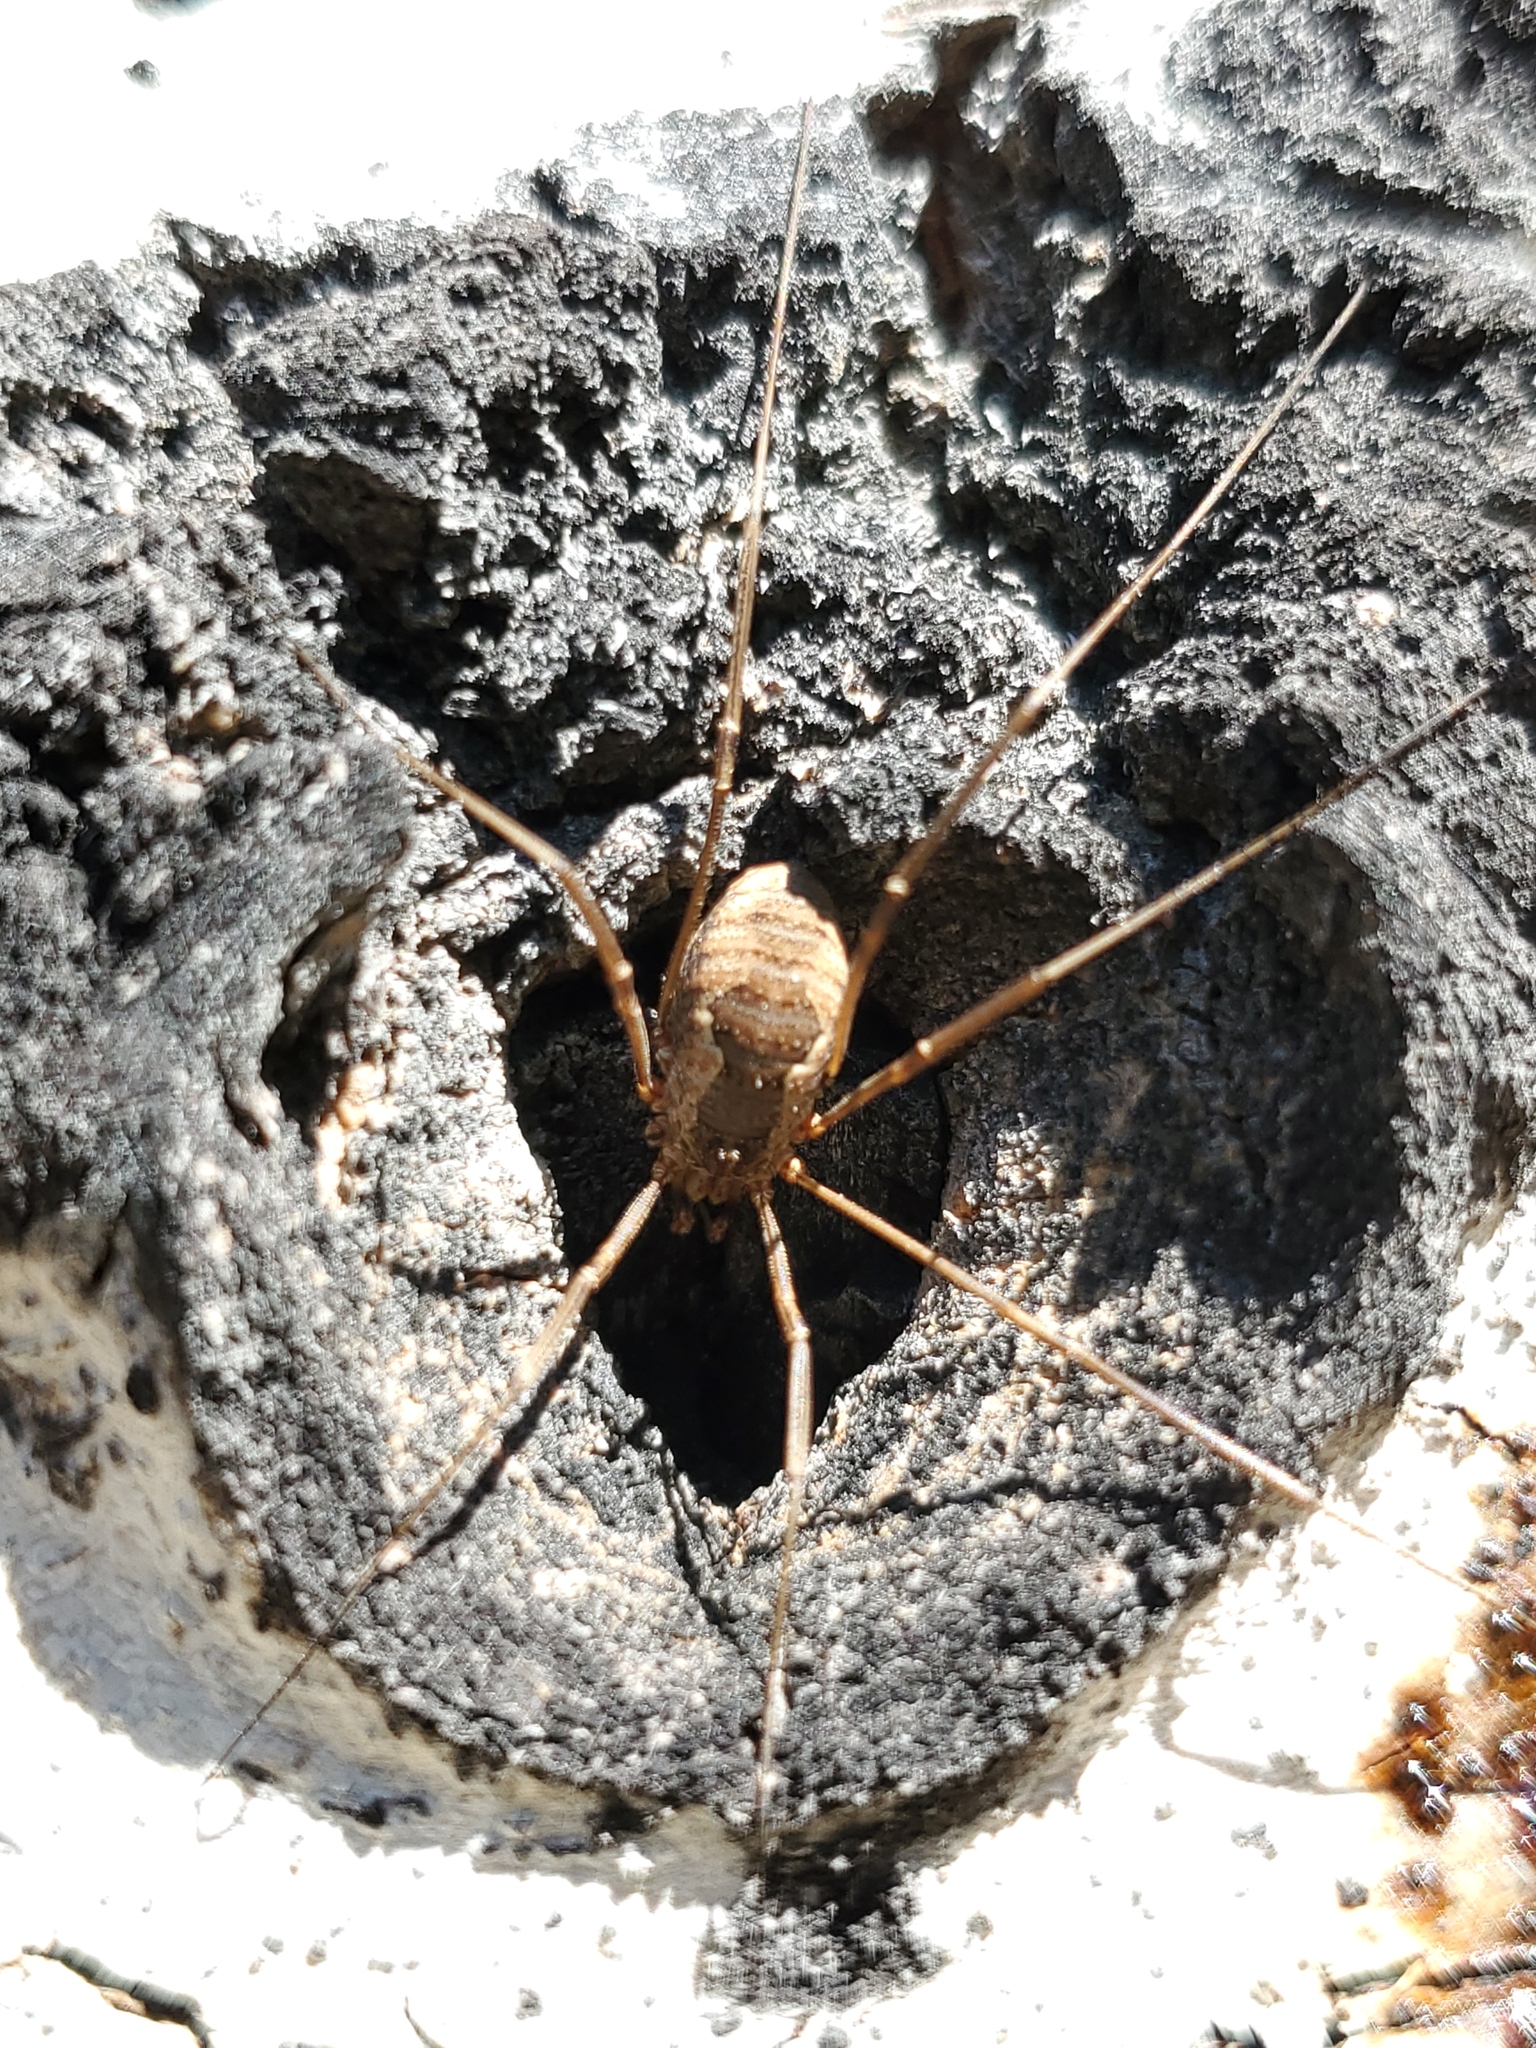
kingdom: Animalia
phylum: Arthropoda
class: Arachnida
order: Opiliones
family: Phalangiidae
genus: Phalangium
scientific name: Phalangium opilio
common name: Daddy longleg
